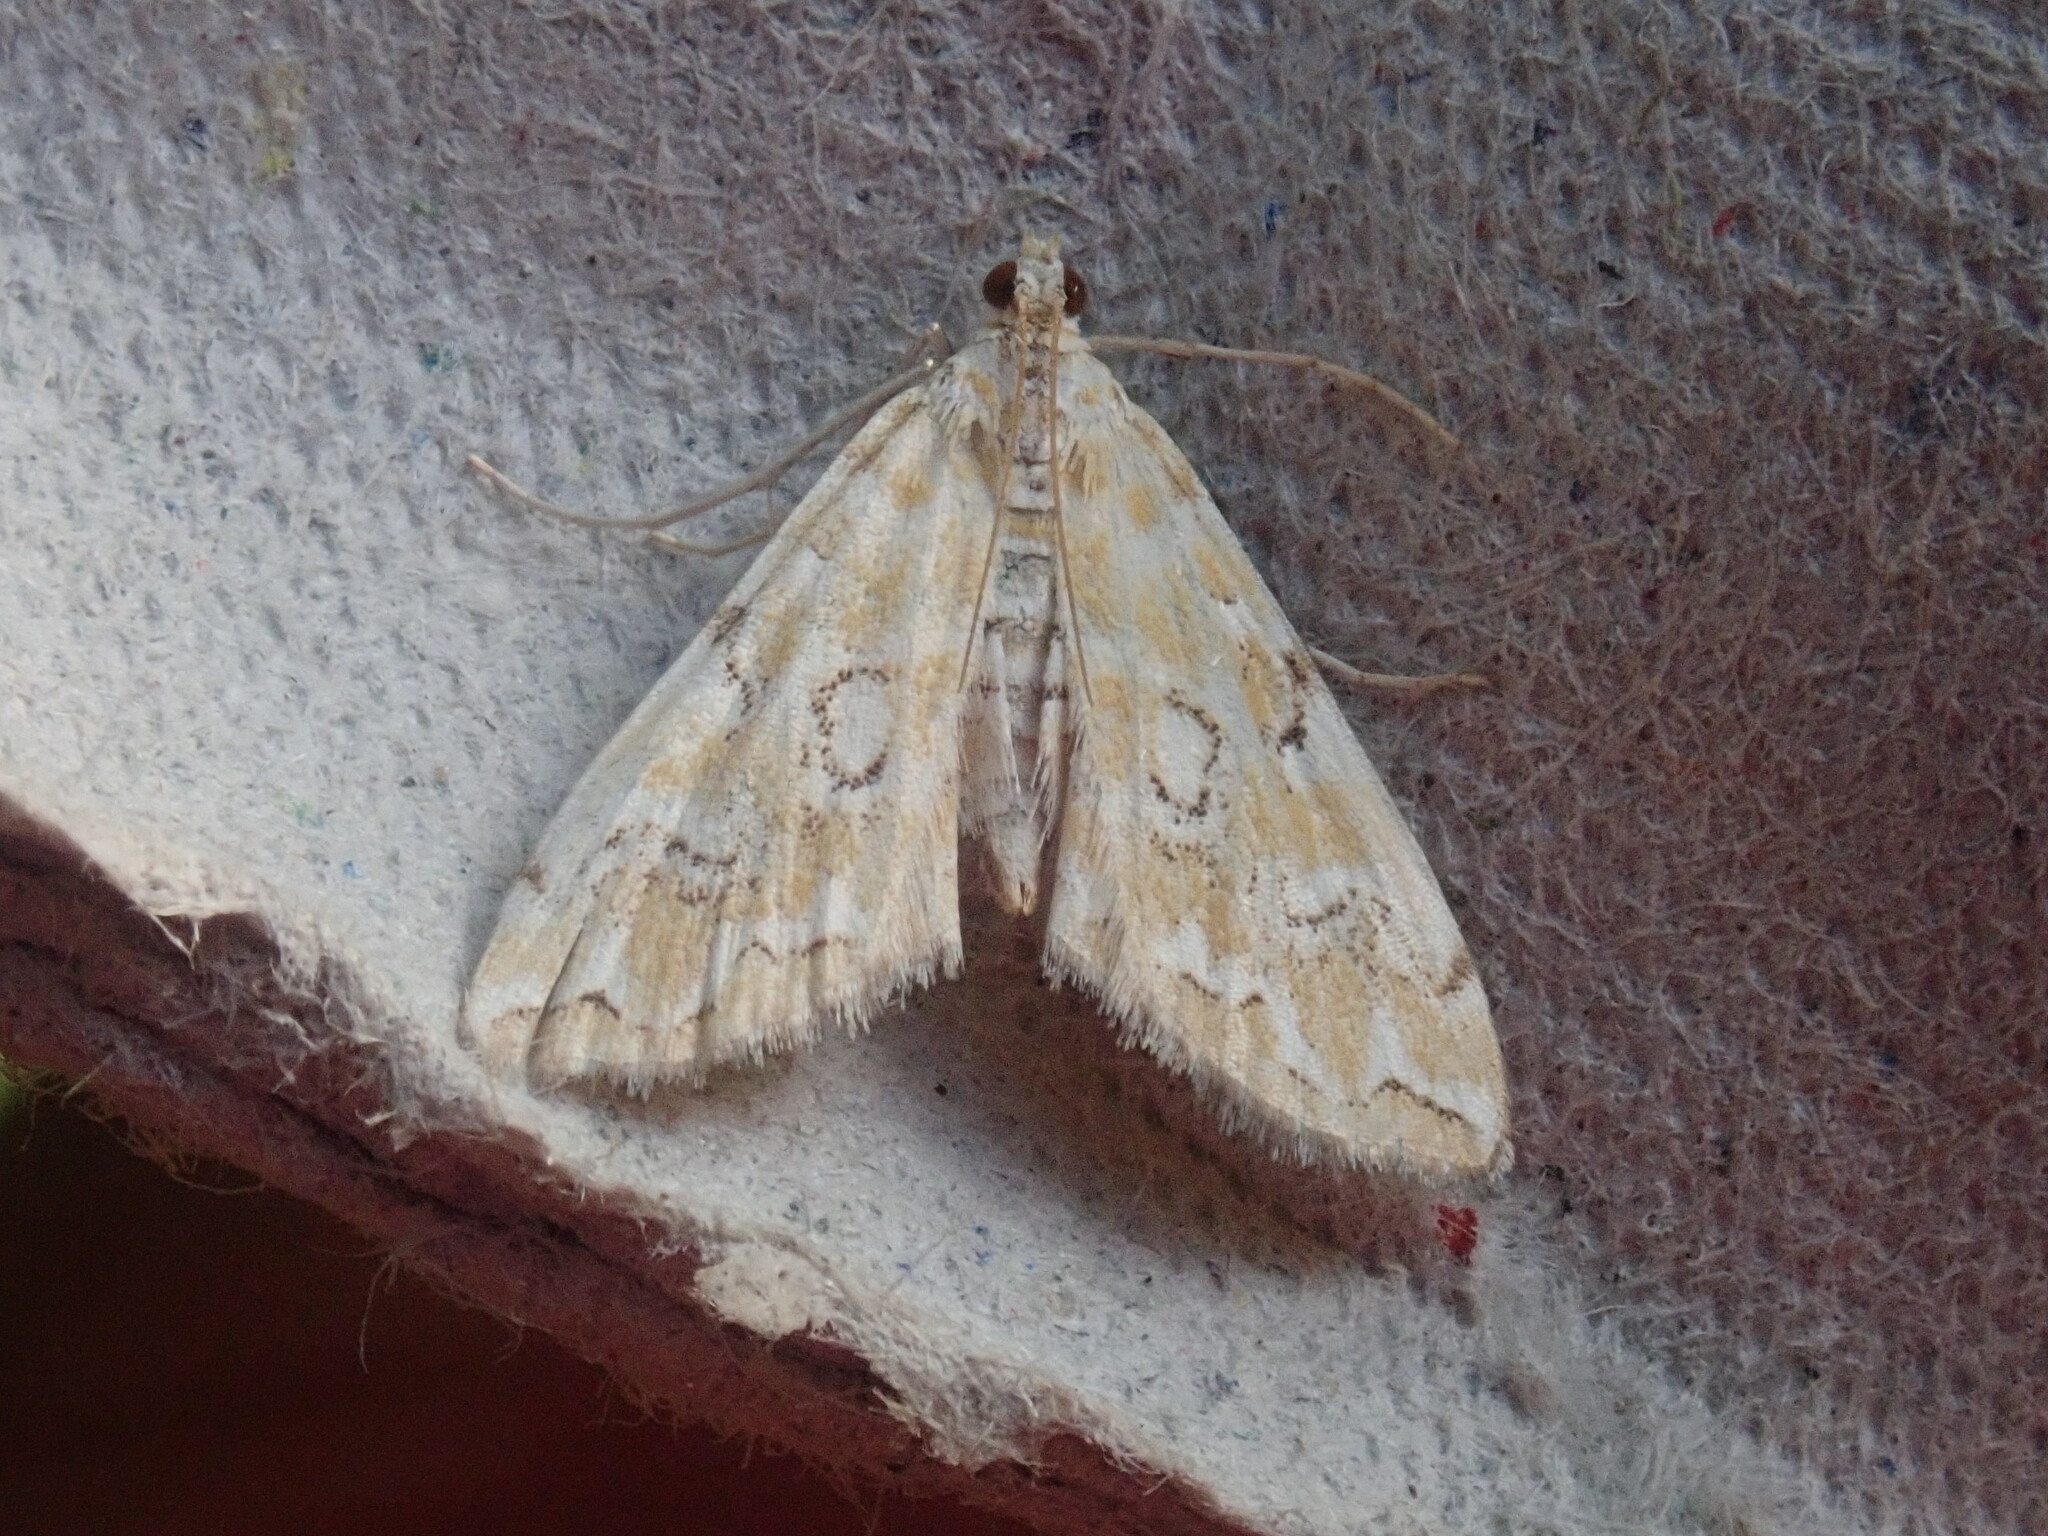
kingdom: Animalia
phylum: Arthropoda
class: Insecta
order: Lepidoptera
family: Crambidae
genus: Elophila
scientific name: Elophila icciusalis
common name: Pondside pyralid moth
